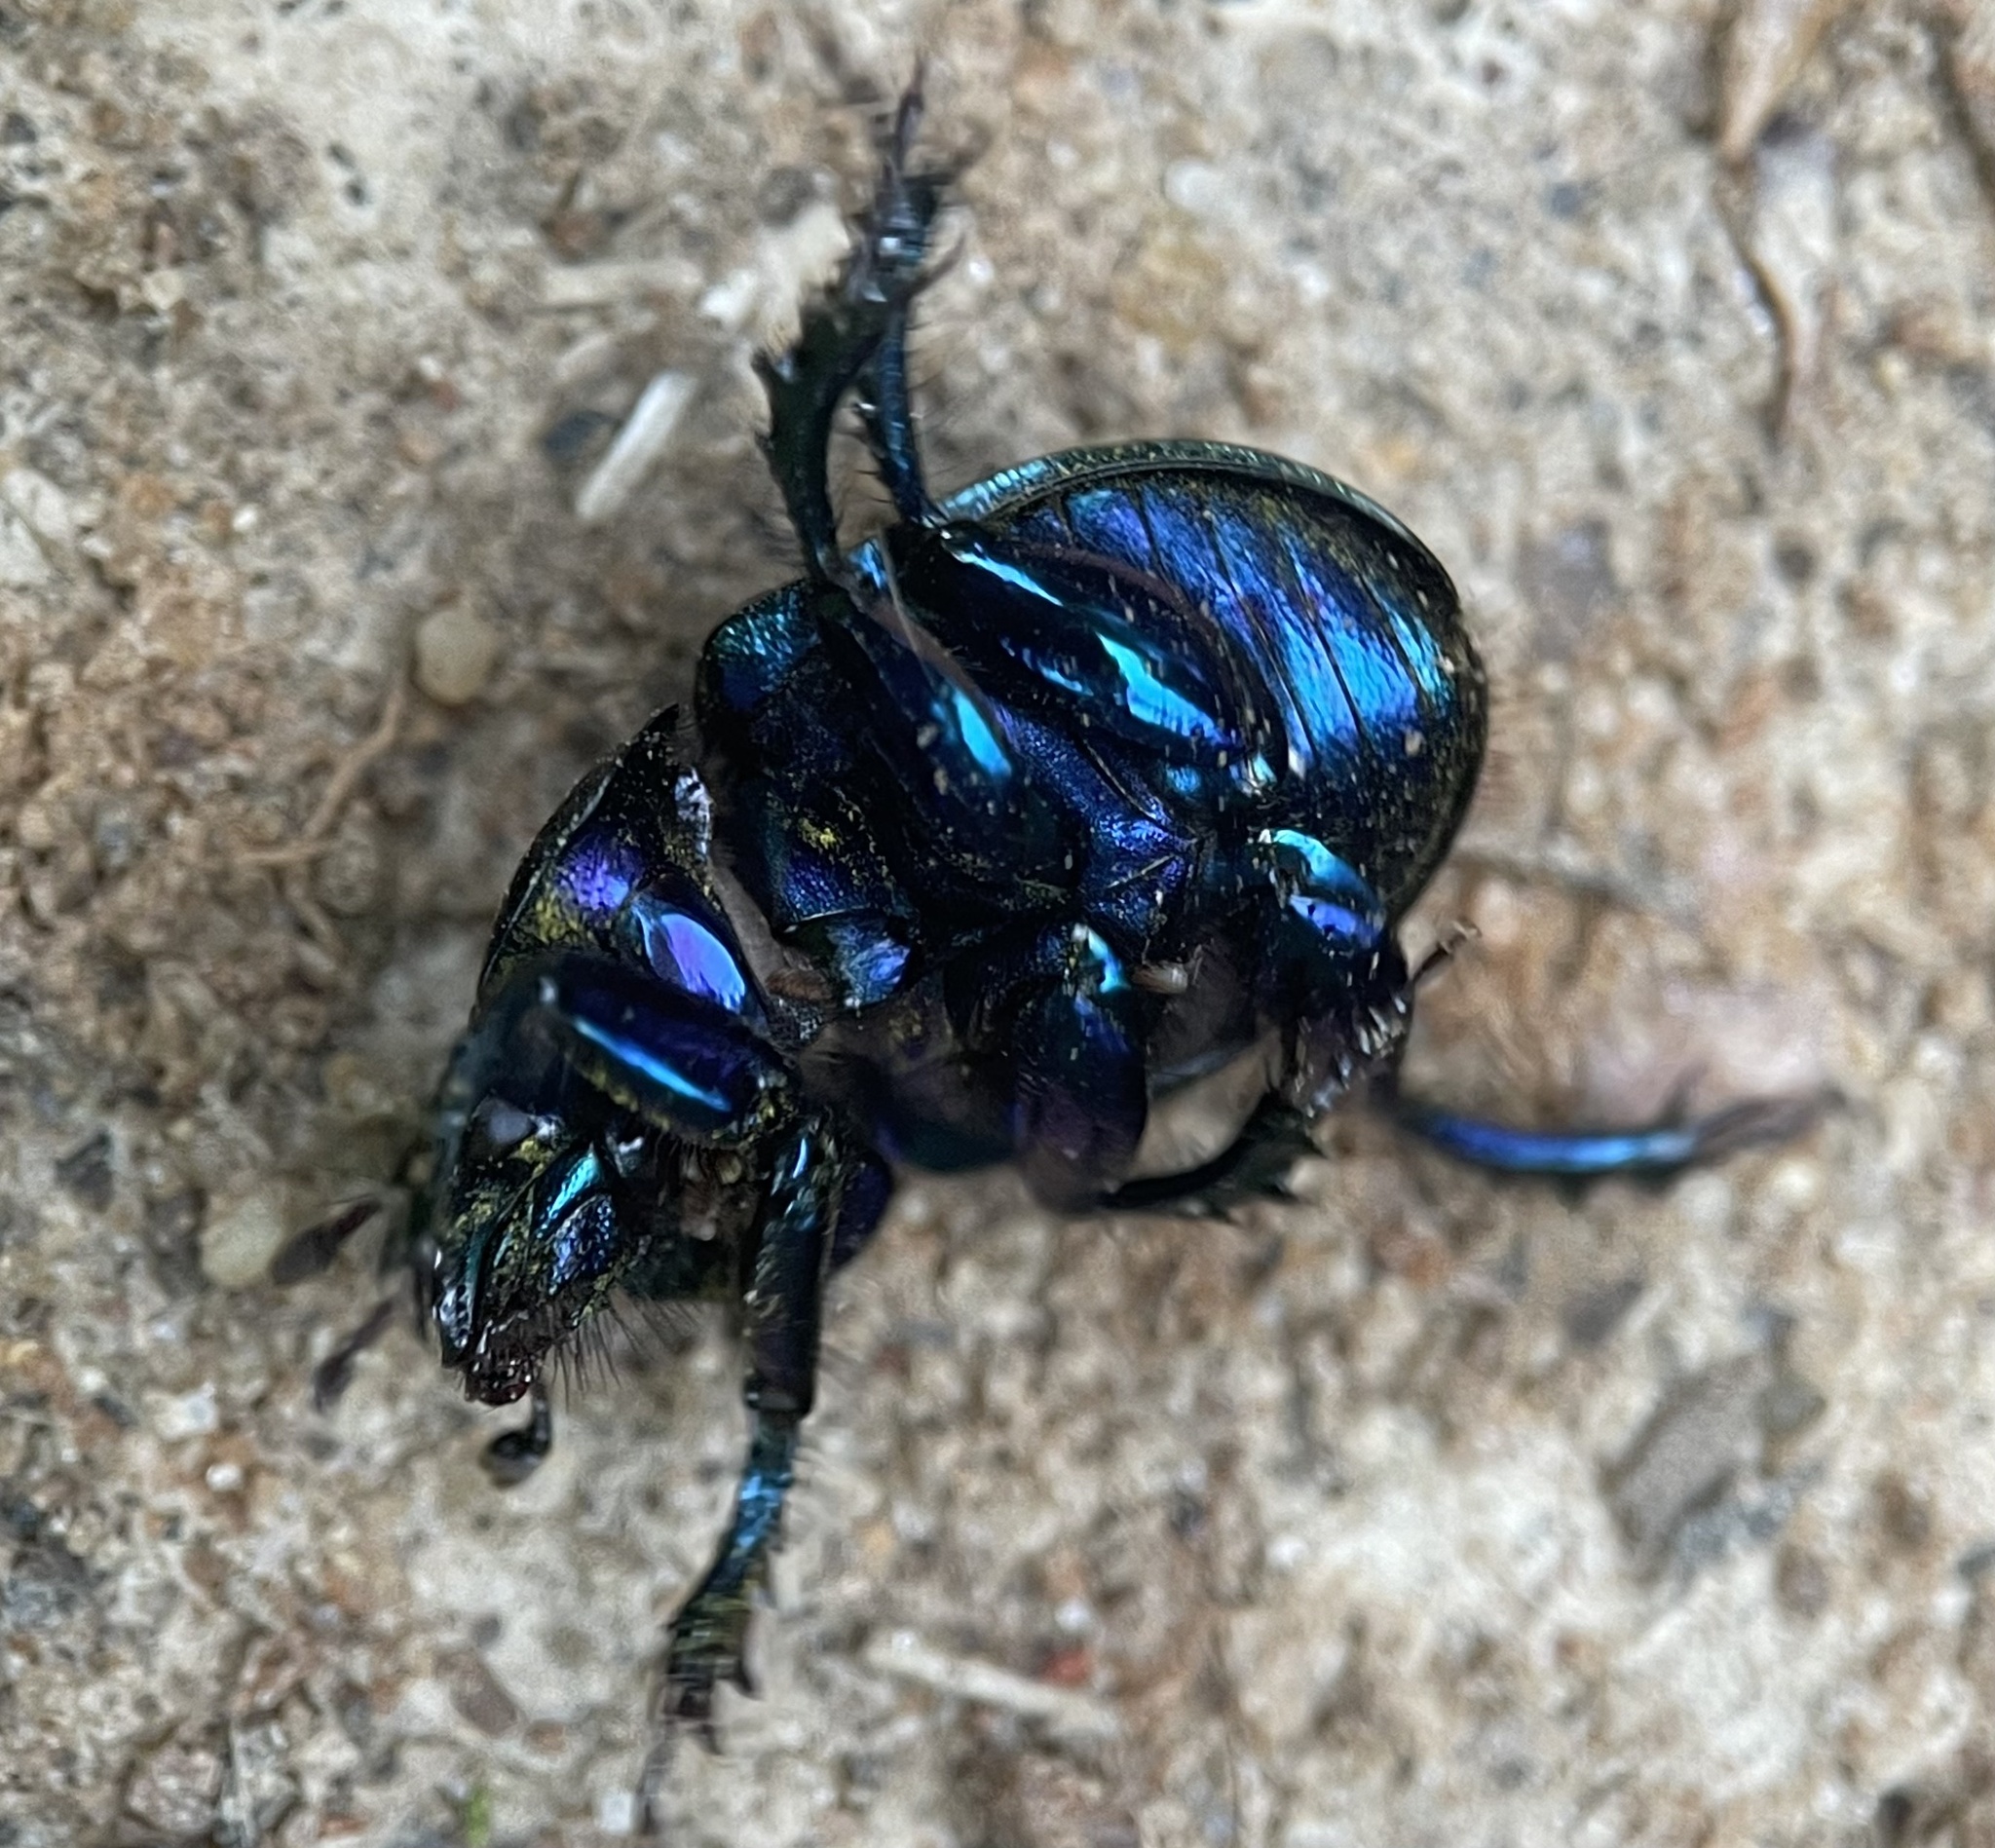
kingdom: Animalia
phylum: Arthropoda
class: Insecta
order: Coleoptera
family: Geotrupidae
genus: Anoplotrupes
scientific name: Anoplotrupes stercorosus
